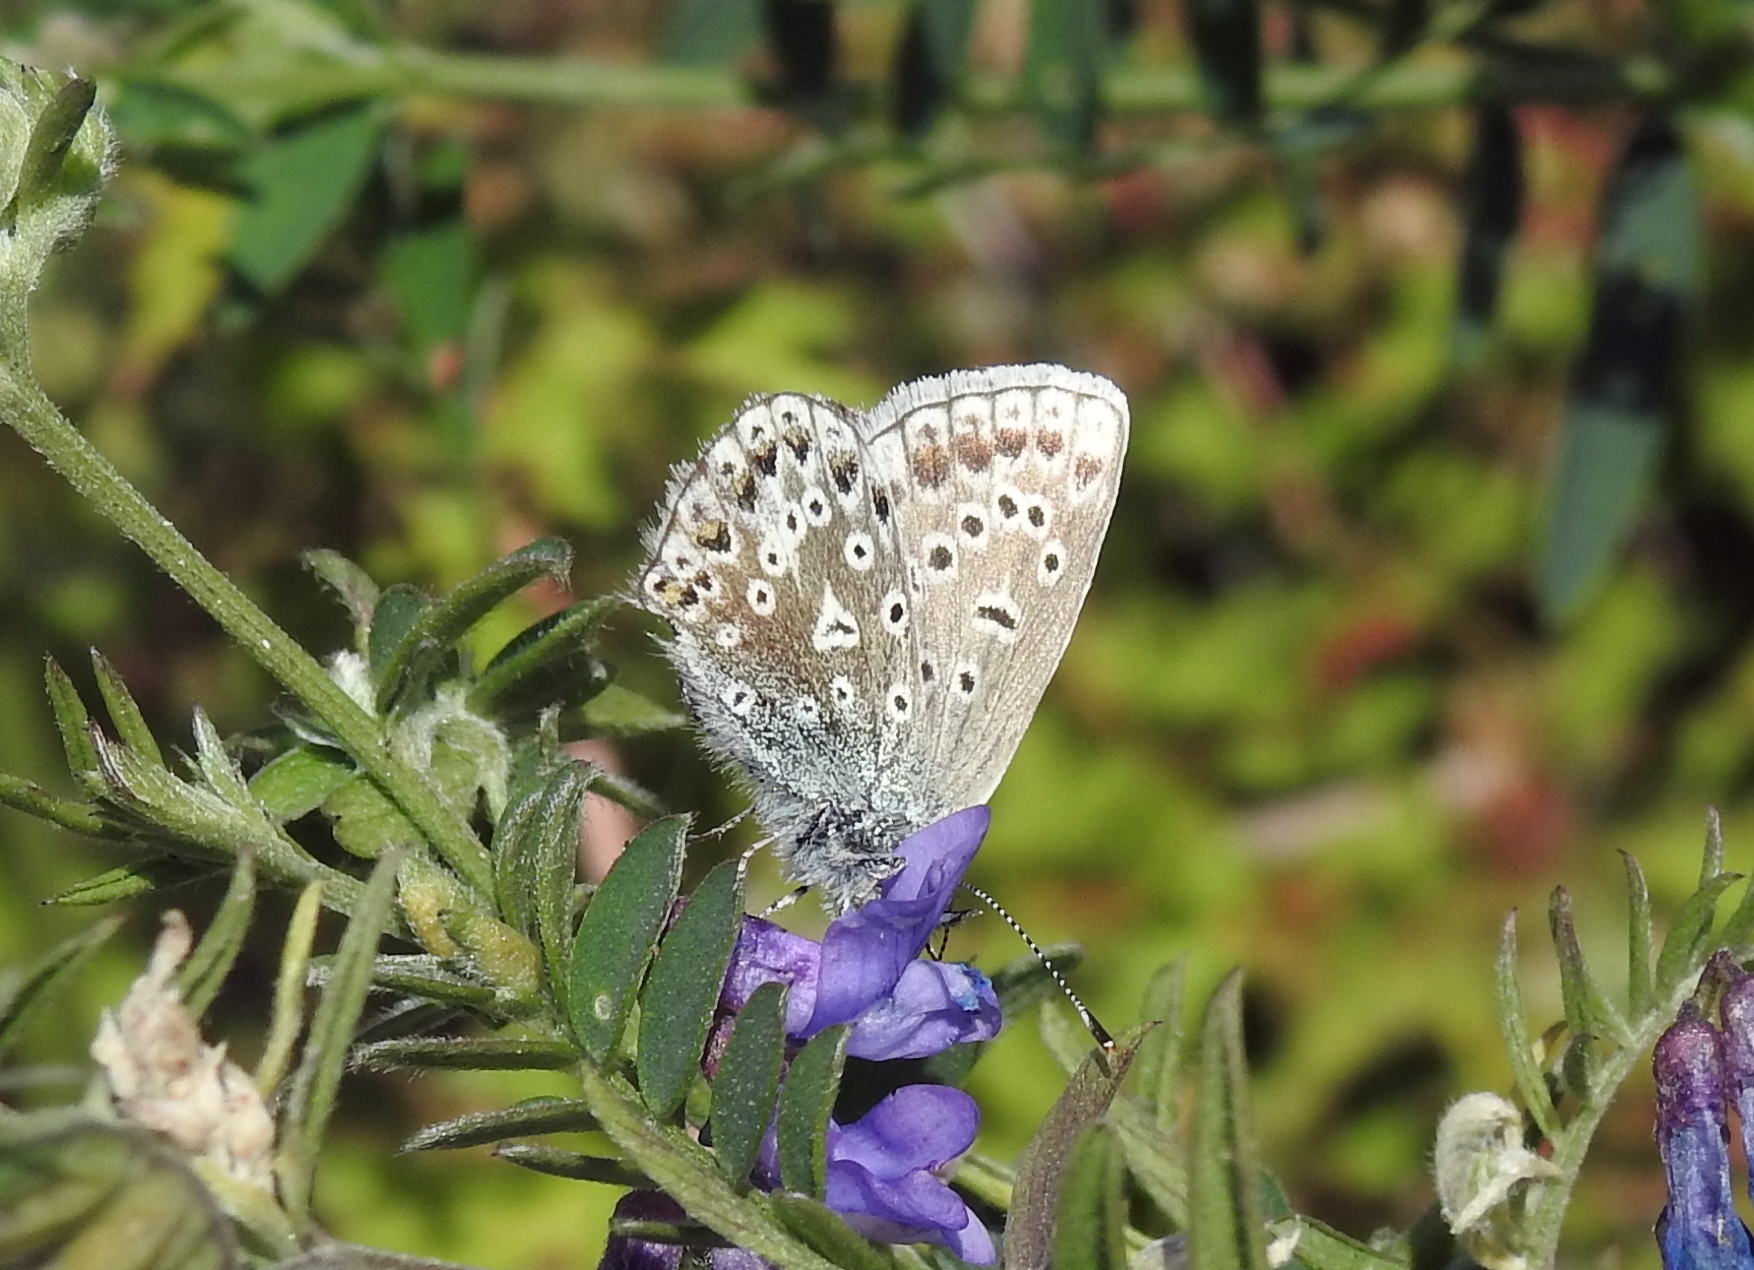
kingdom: Animalia
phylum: Arthropoda
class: Insecta
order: Lepidoptera
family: Lycaenidae
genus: Polyommatus
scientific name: Polyommatus icarus
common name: Common blue
